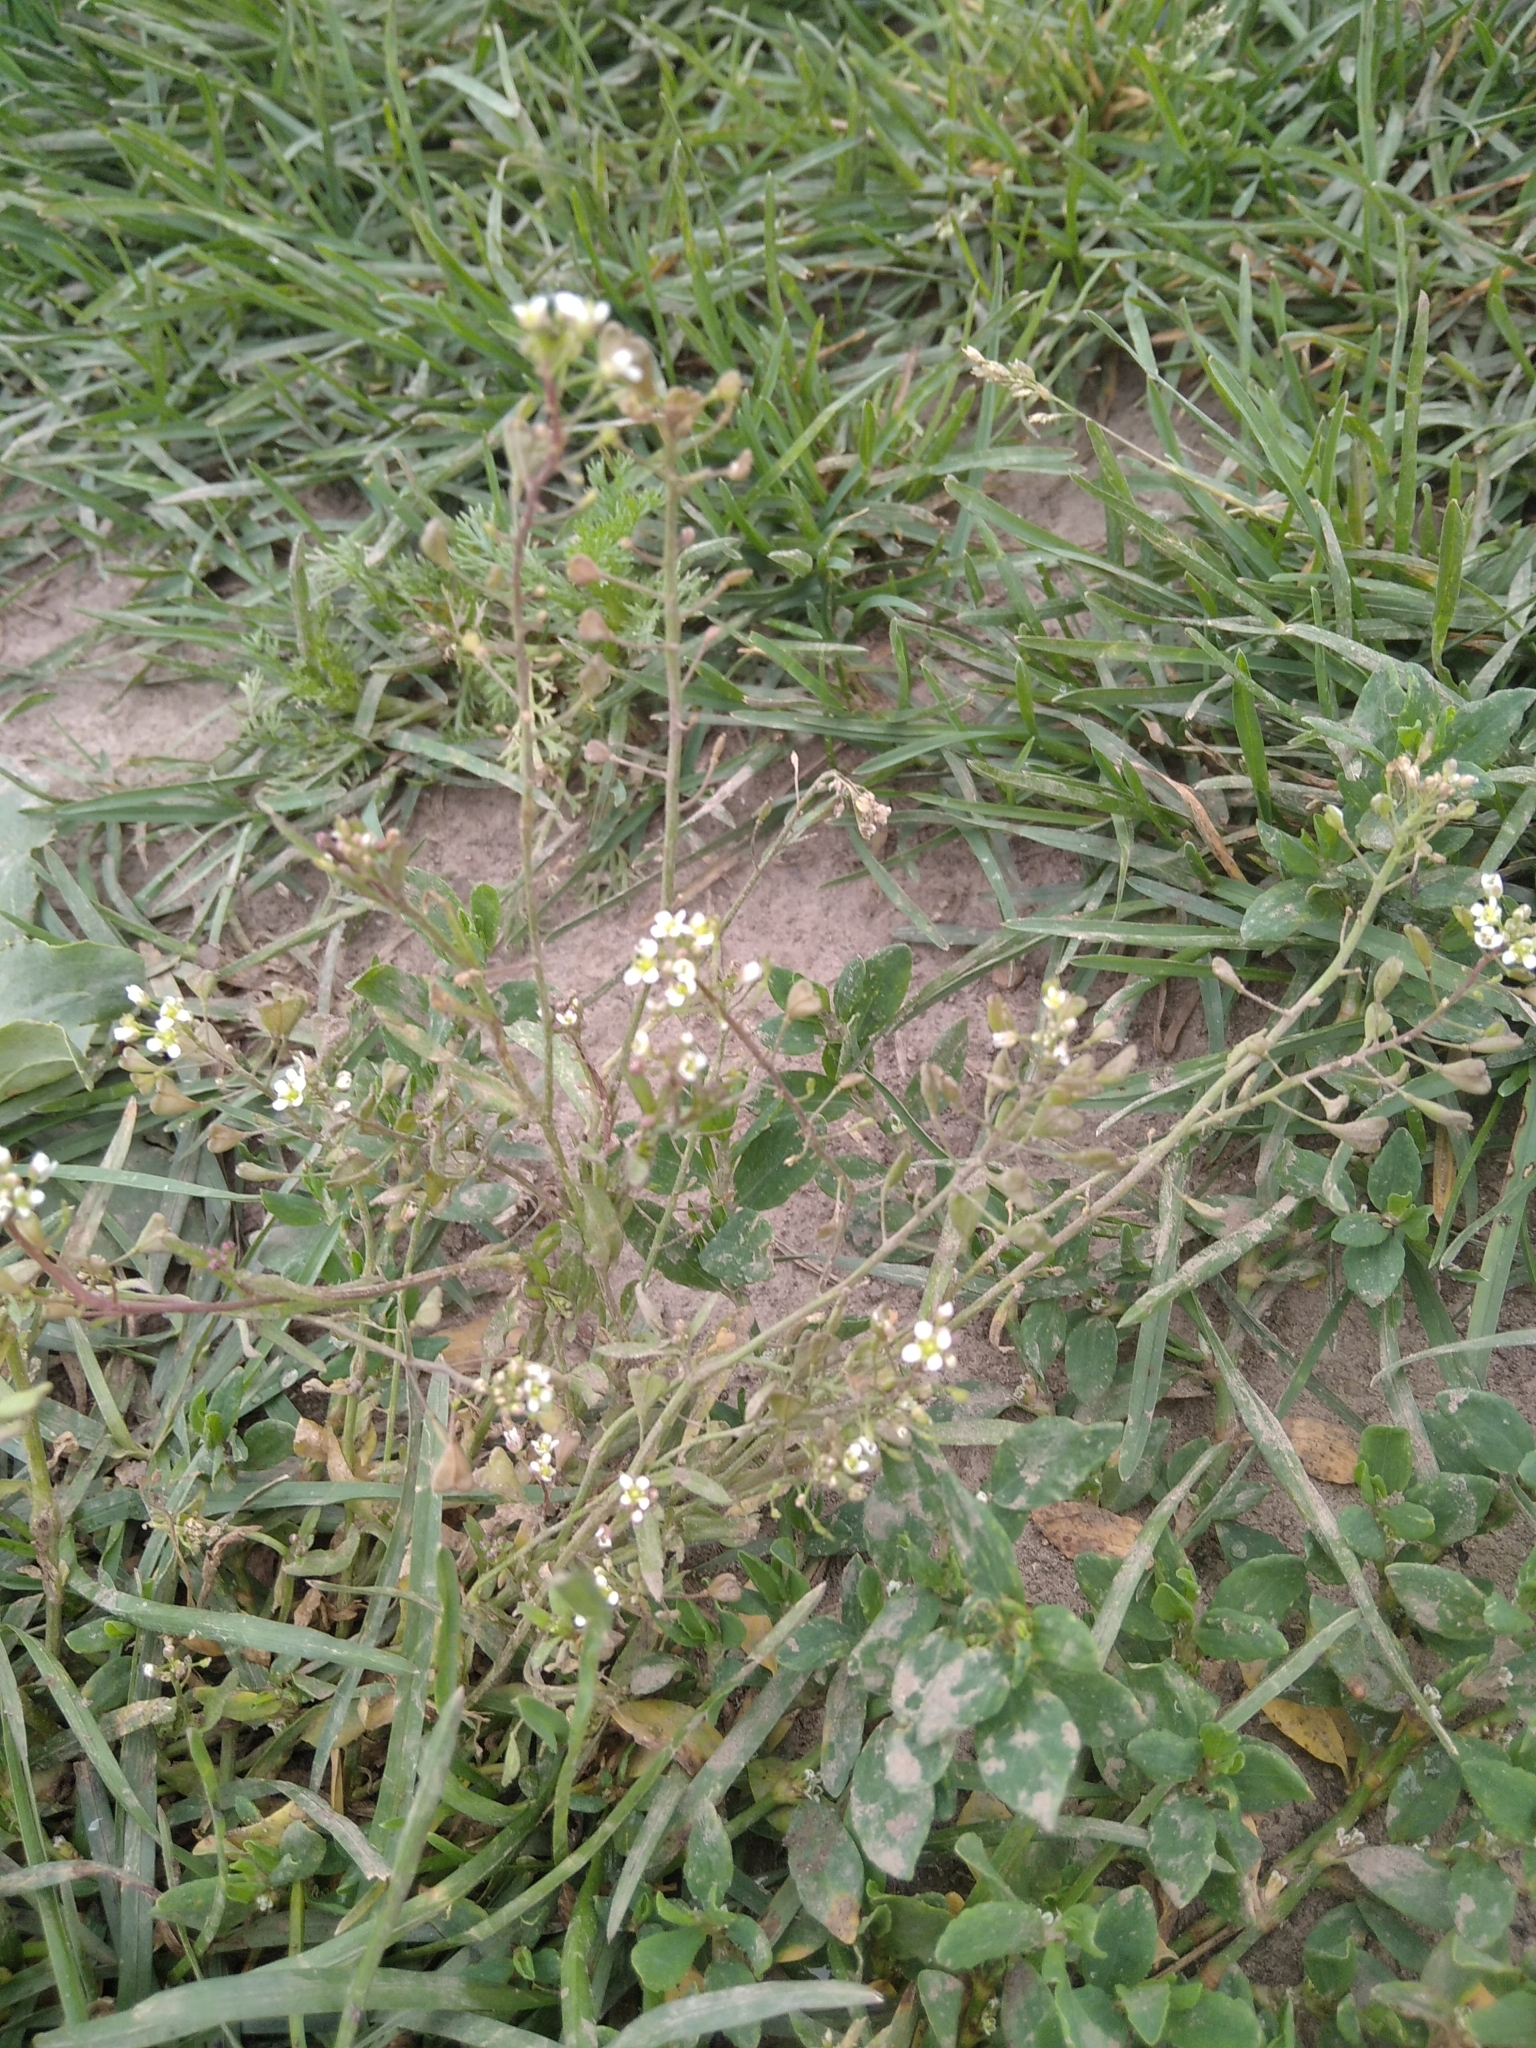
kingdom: Plantae
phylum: Tracheophyta
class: Magnoliopsida
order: Brassicales
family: Brassicaceae
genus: Capsella
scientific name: Capsella bursa-pastoris
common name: Shepherd's purse
